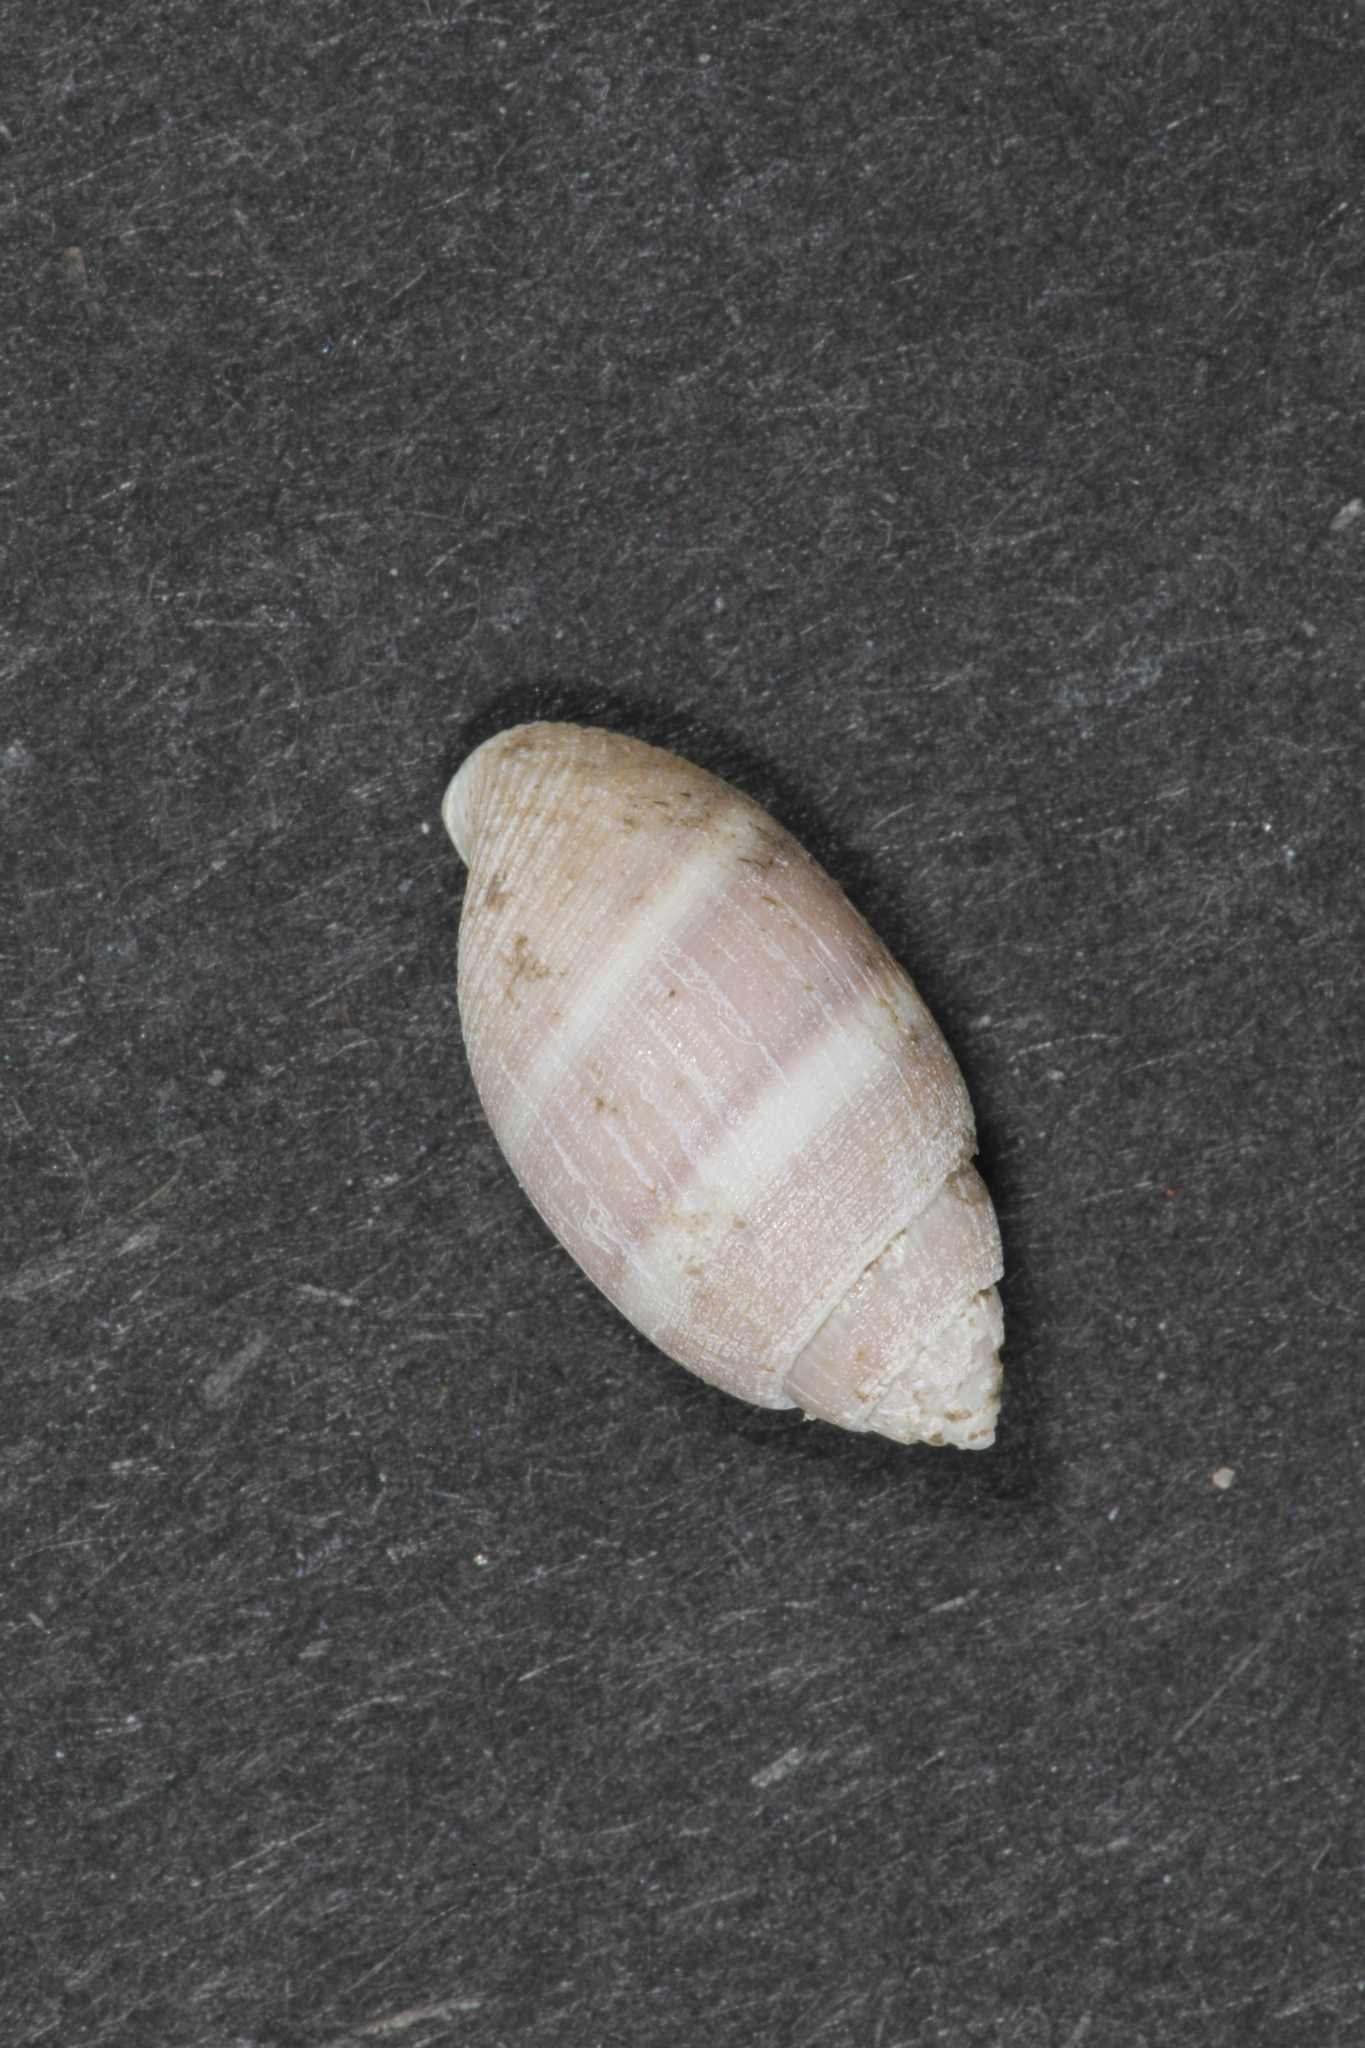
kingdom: Animalia
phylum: Mollusca
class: Gastropoda
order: Cephalaspidea
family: Acteonidae
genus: Acteon
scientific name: Acteon tornatilis
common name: European acteon
